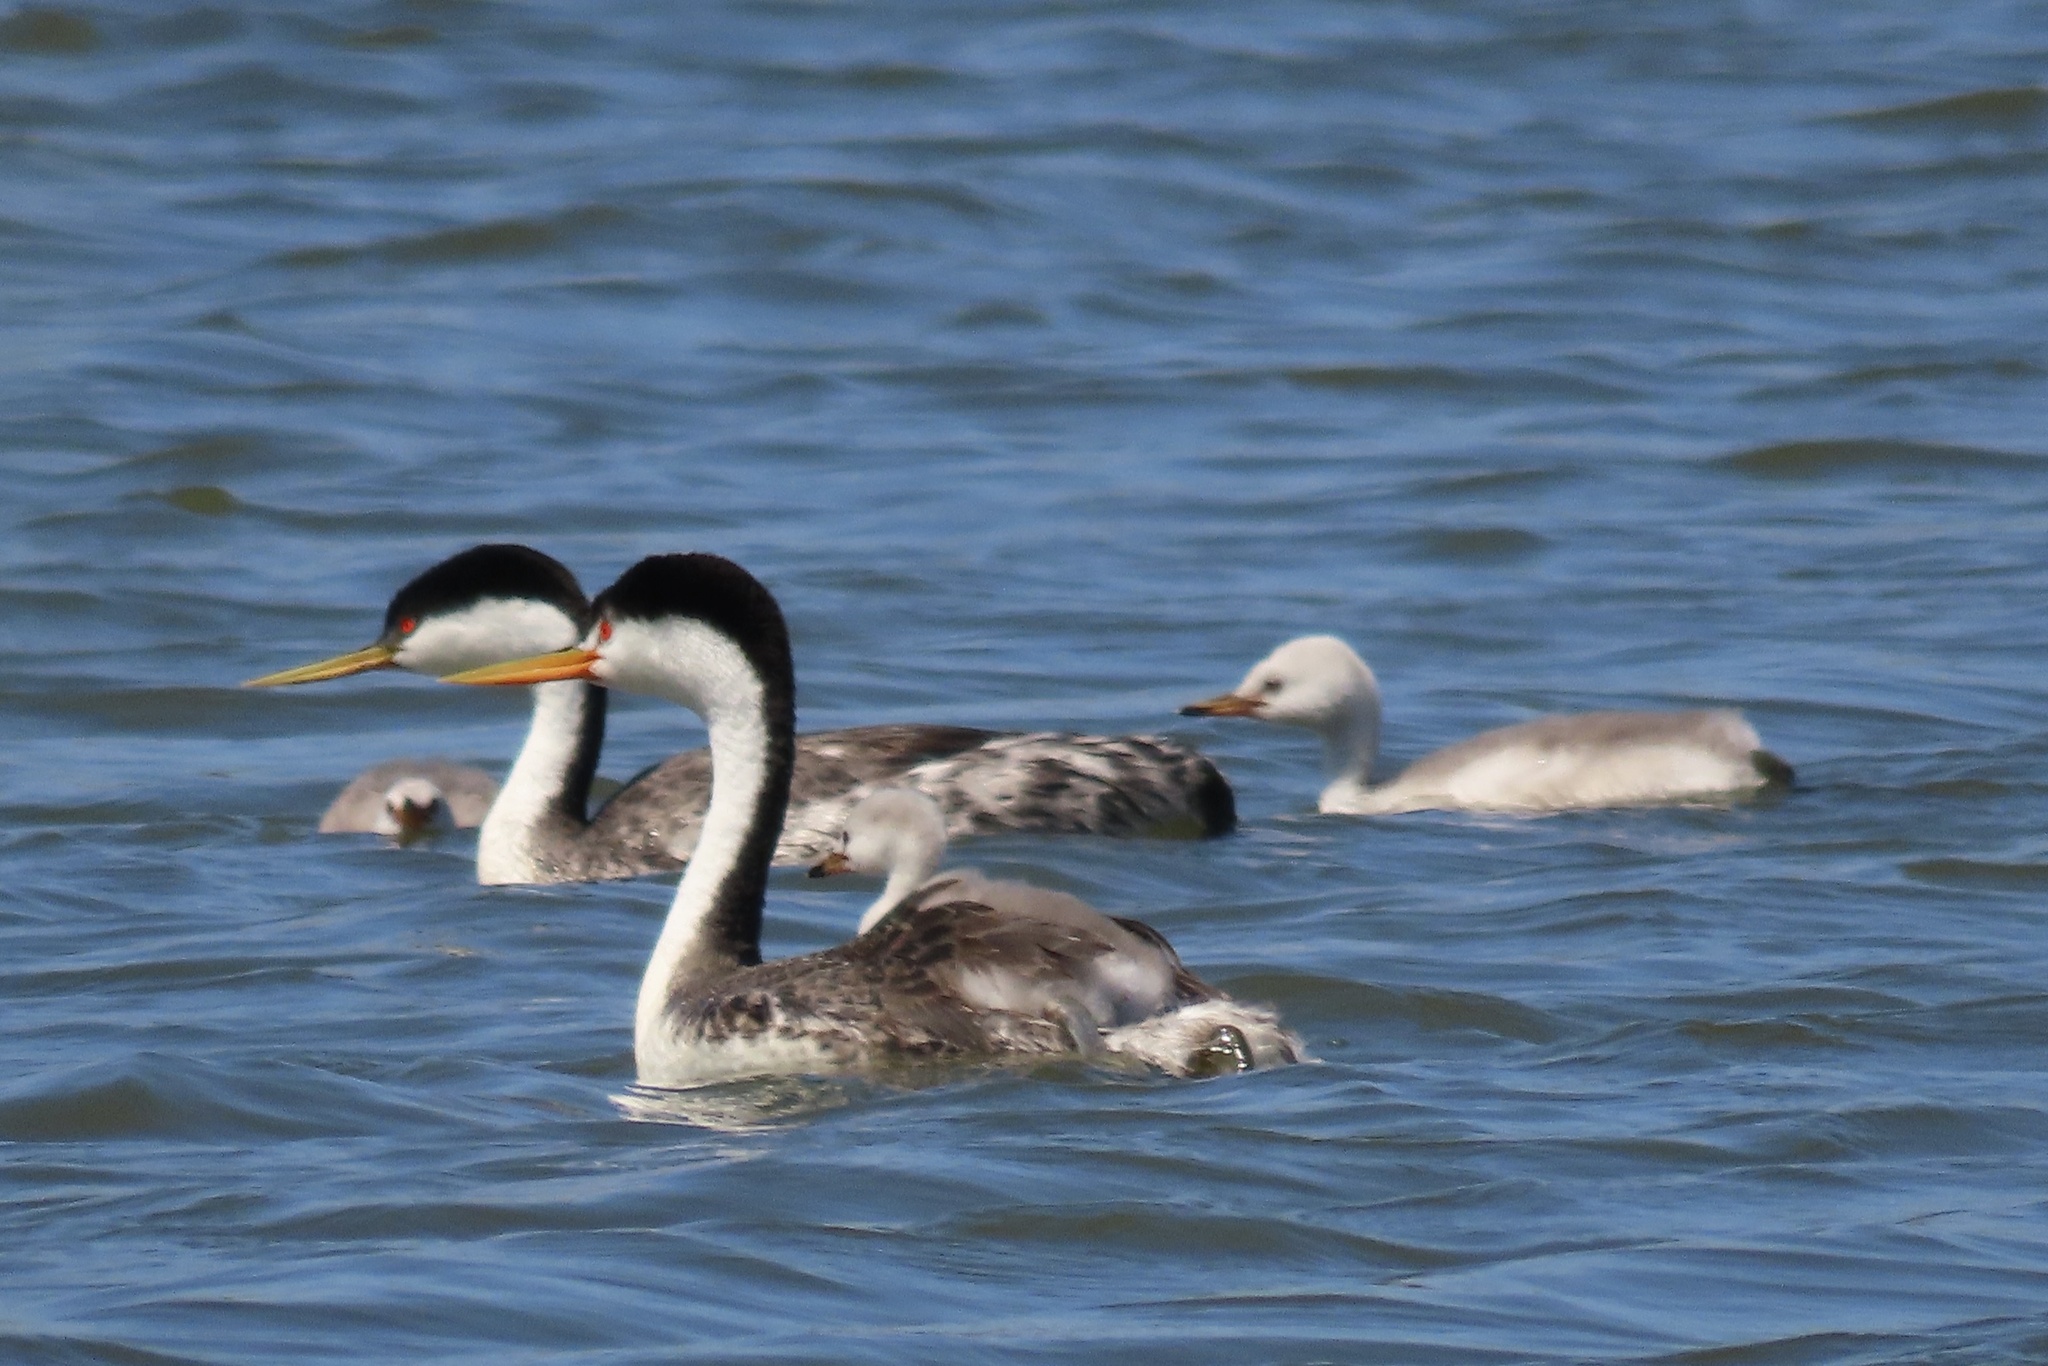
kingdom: Animalia
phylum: Chordata
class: Aves
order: Podicipediformes
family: Podicipedidae
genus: Aechmophorus
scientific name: Aechmophorus occidentalis
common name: Western grebe
